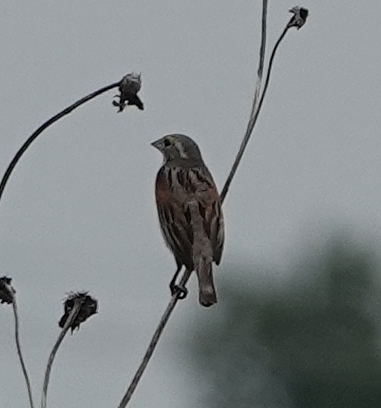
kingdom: Animalia
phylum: Chordata
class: Aves
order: Passeriformes
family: Cardinalidae
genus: Spiza
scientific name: Spiza americana
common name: Dickcissel
